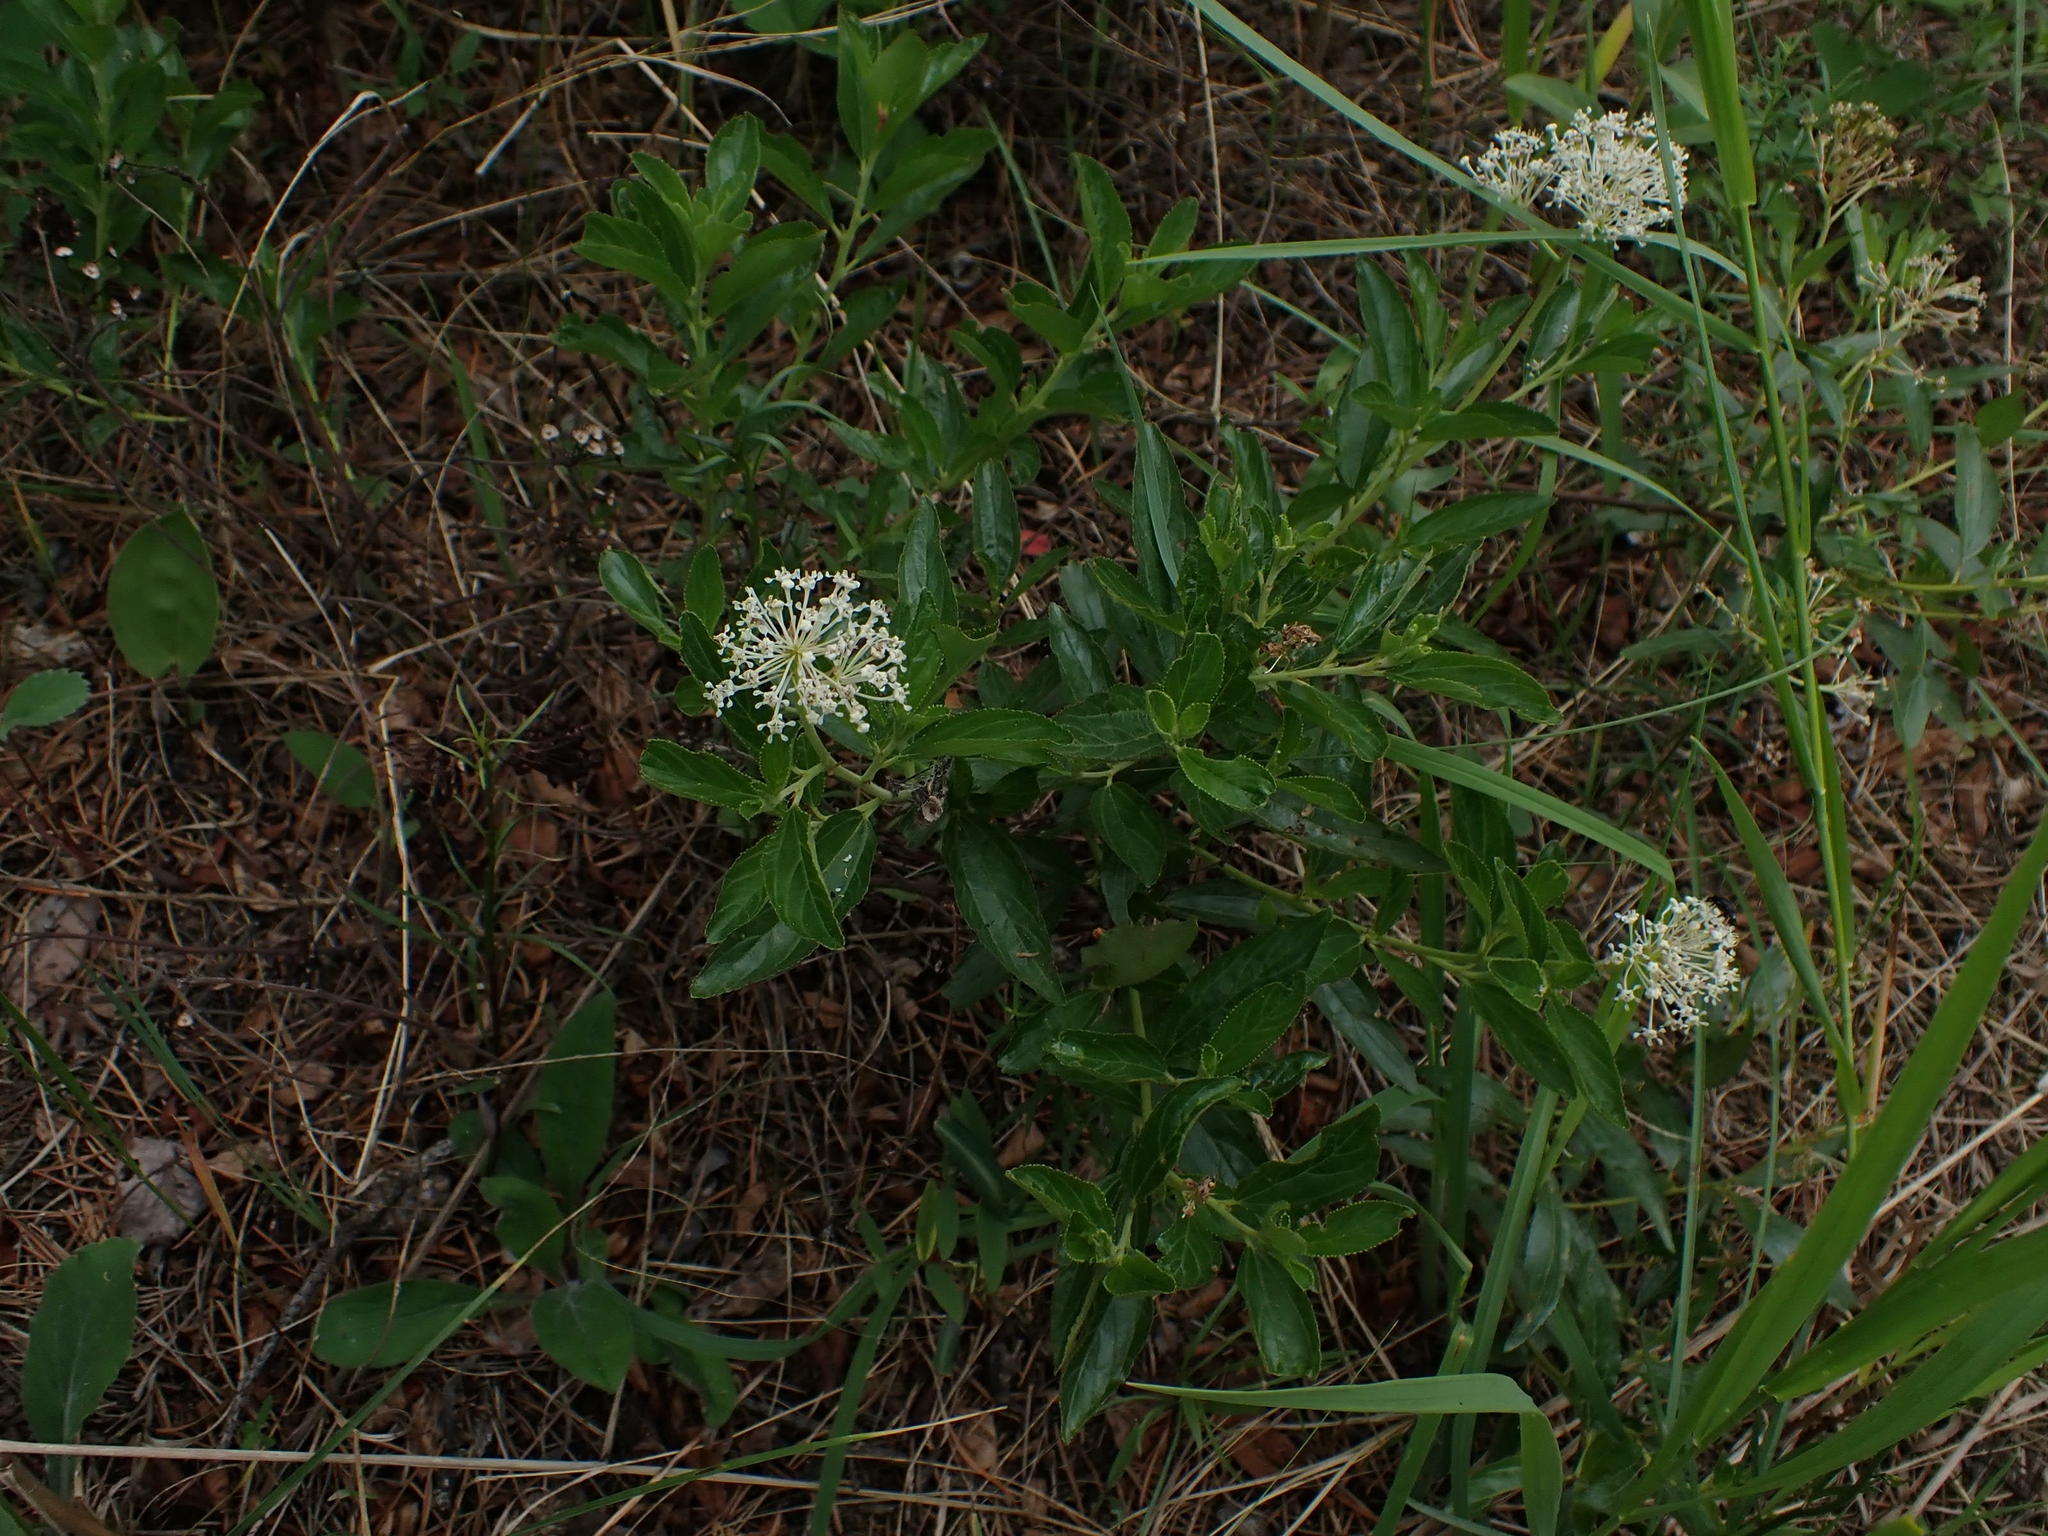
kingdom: Plantae
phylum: Tracheophyta
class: Magnoliopsida
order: Rosales
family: Rhamnaceae
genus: Ceanothus
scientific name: Ceanothus herbaceus
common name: Inland ceanothus
